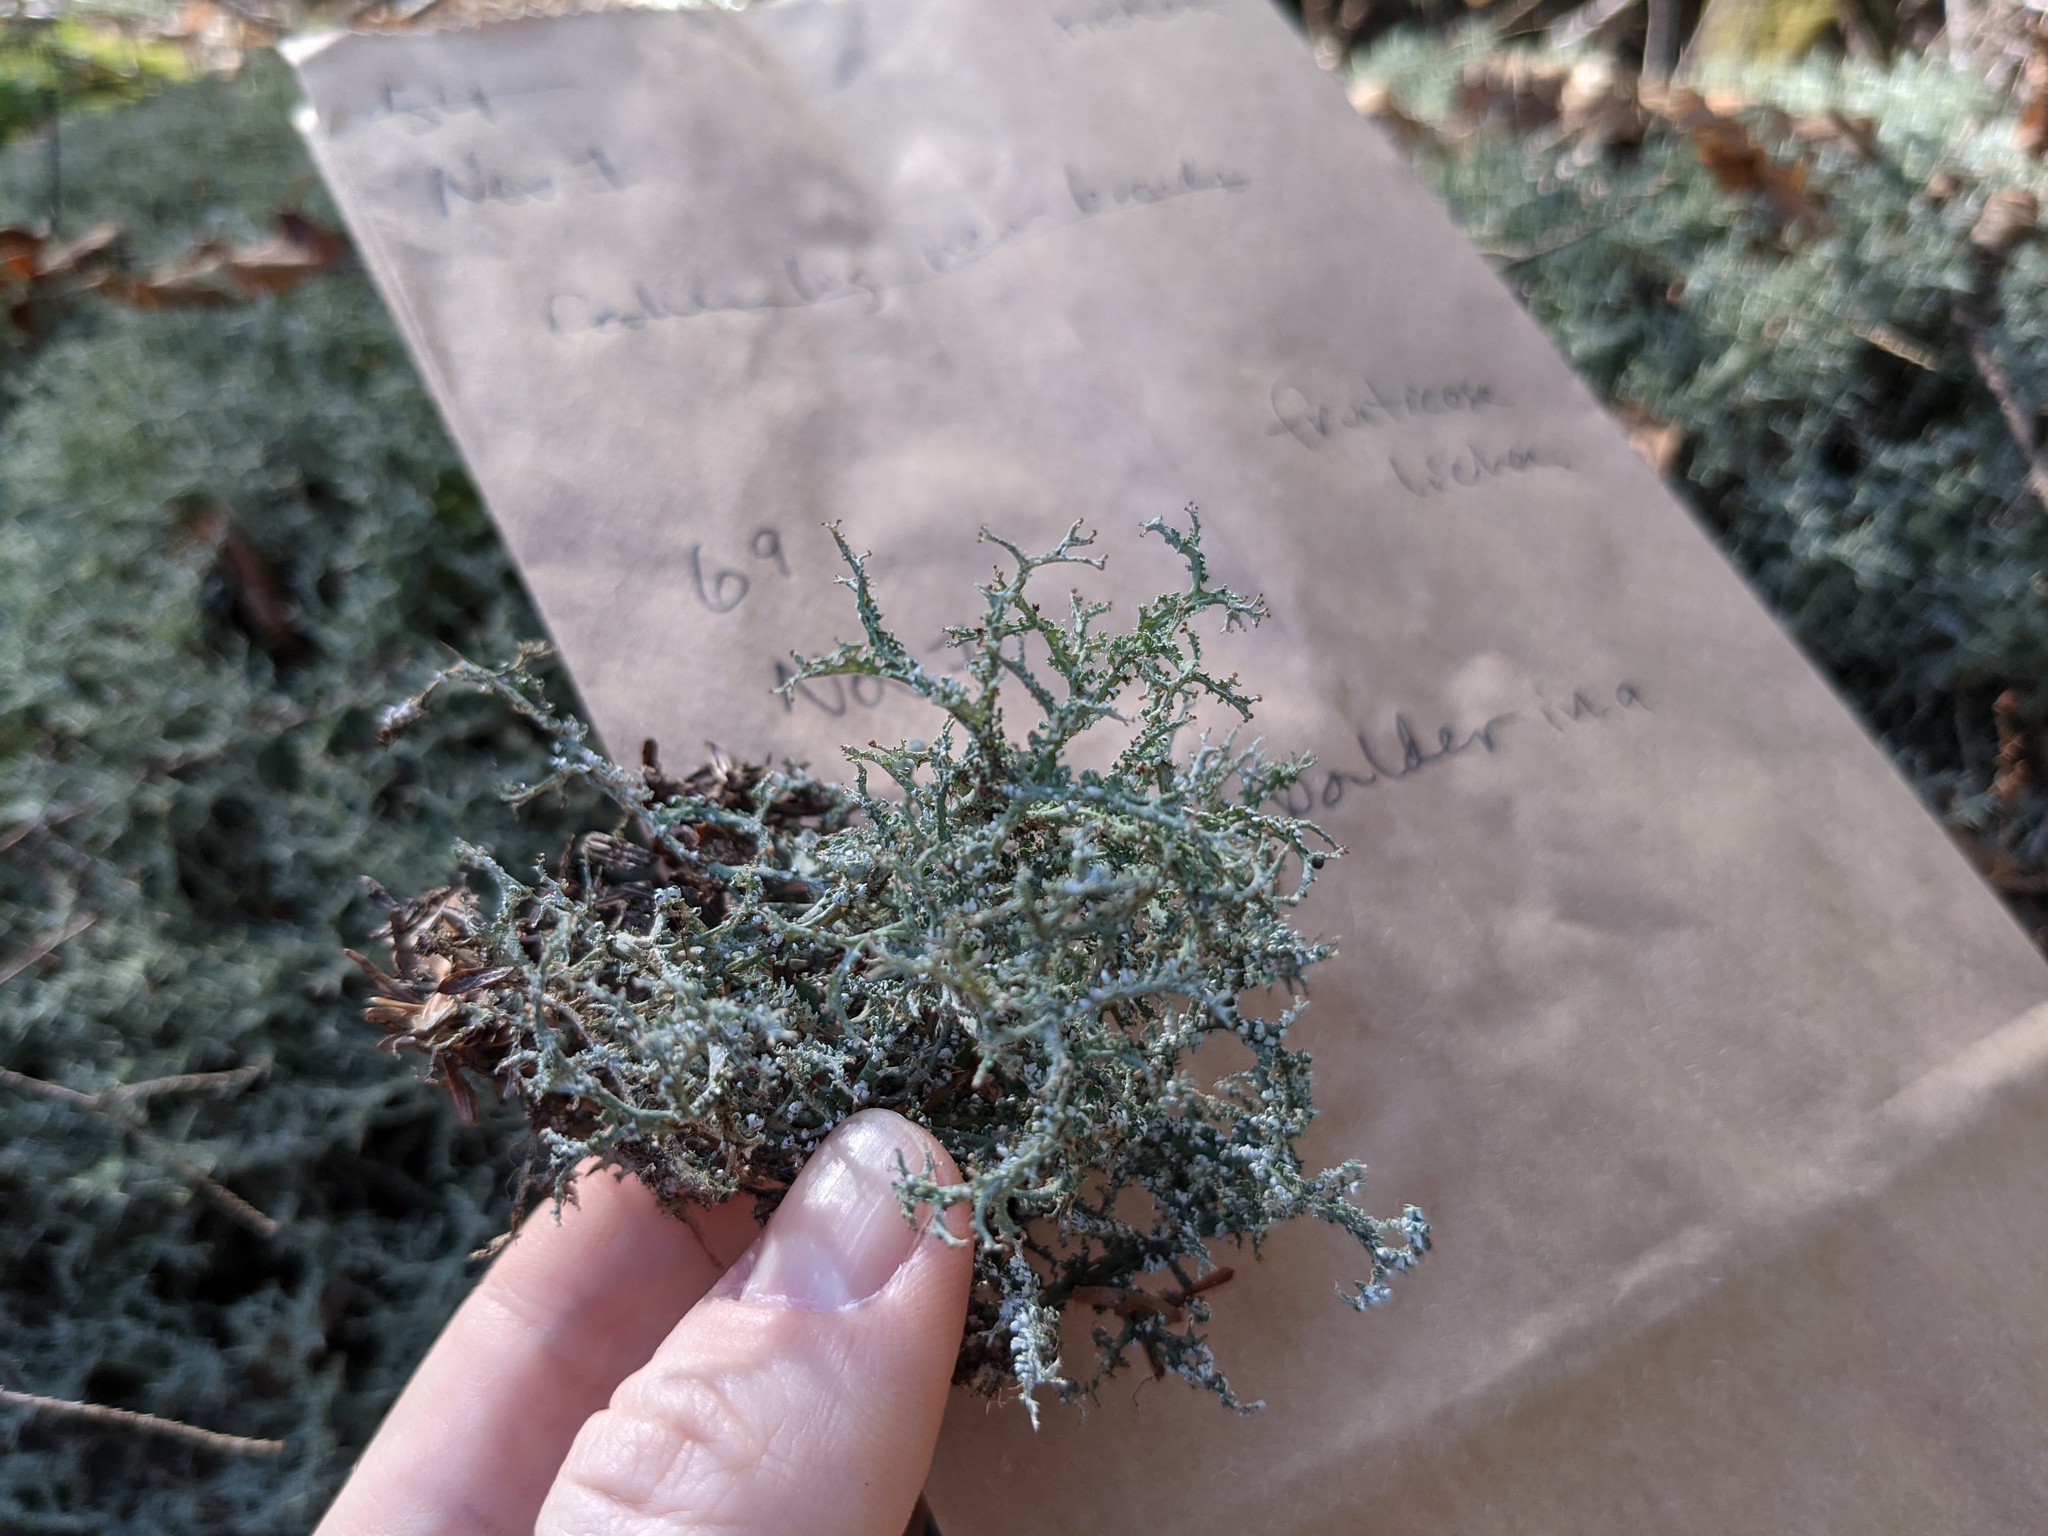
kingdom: Fungi
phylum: Ascomycota
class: Lecanoromycetes
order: Lecanorales
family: Cladoniaceae
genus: Cladonia
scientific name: Cladonia furcata
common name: Many-forked cladonia
